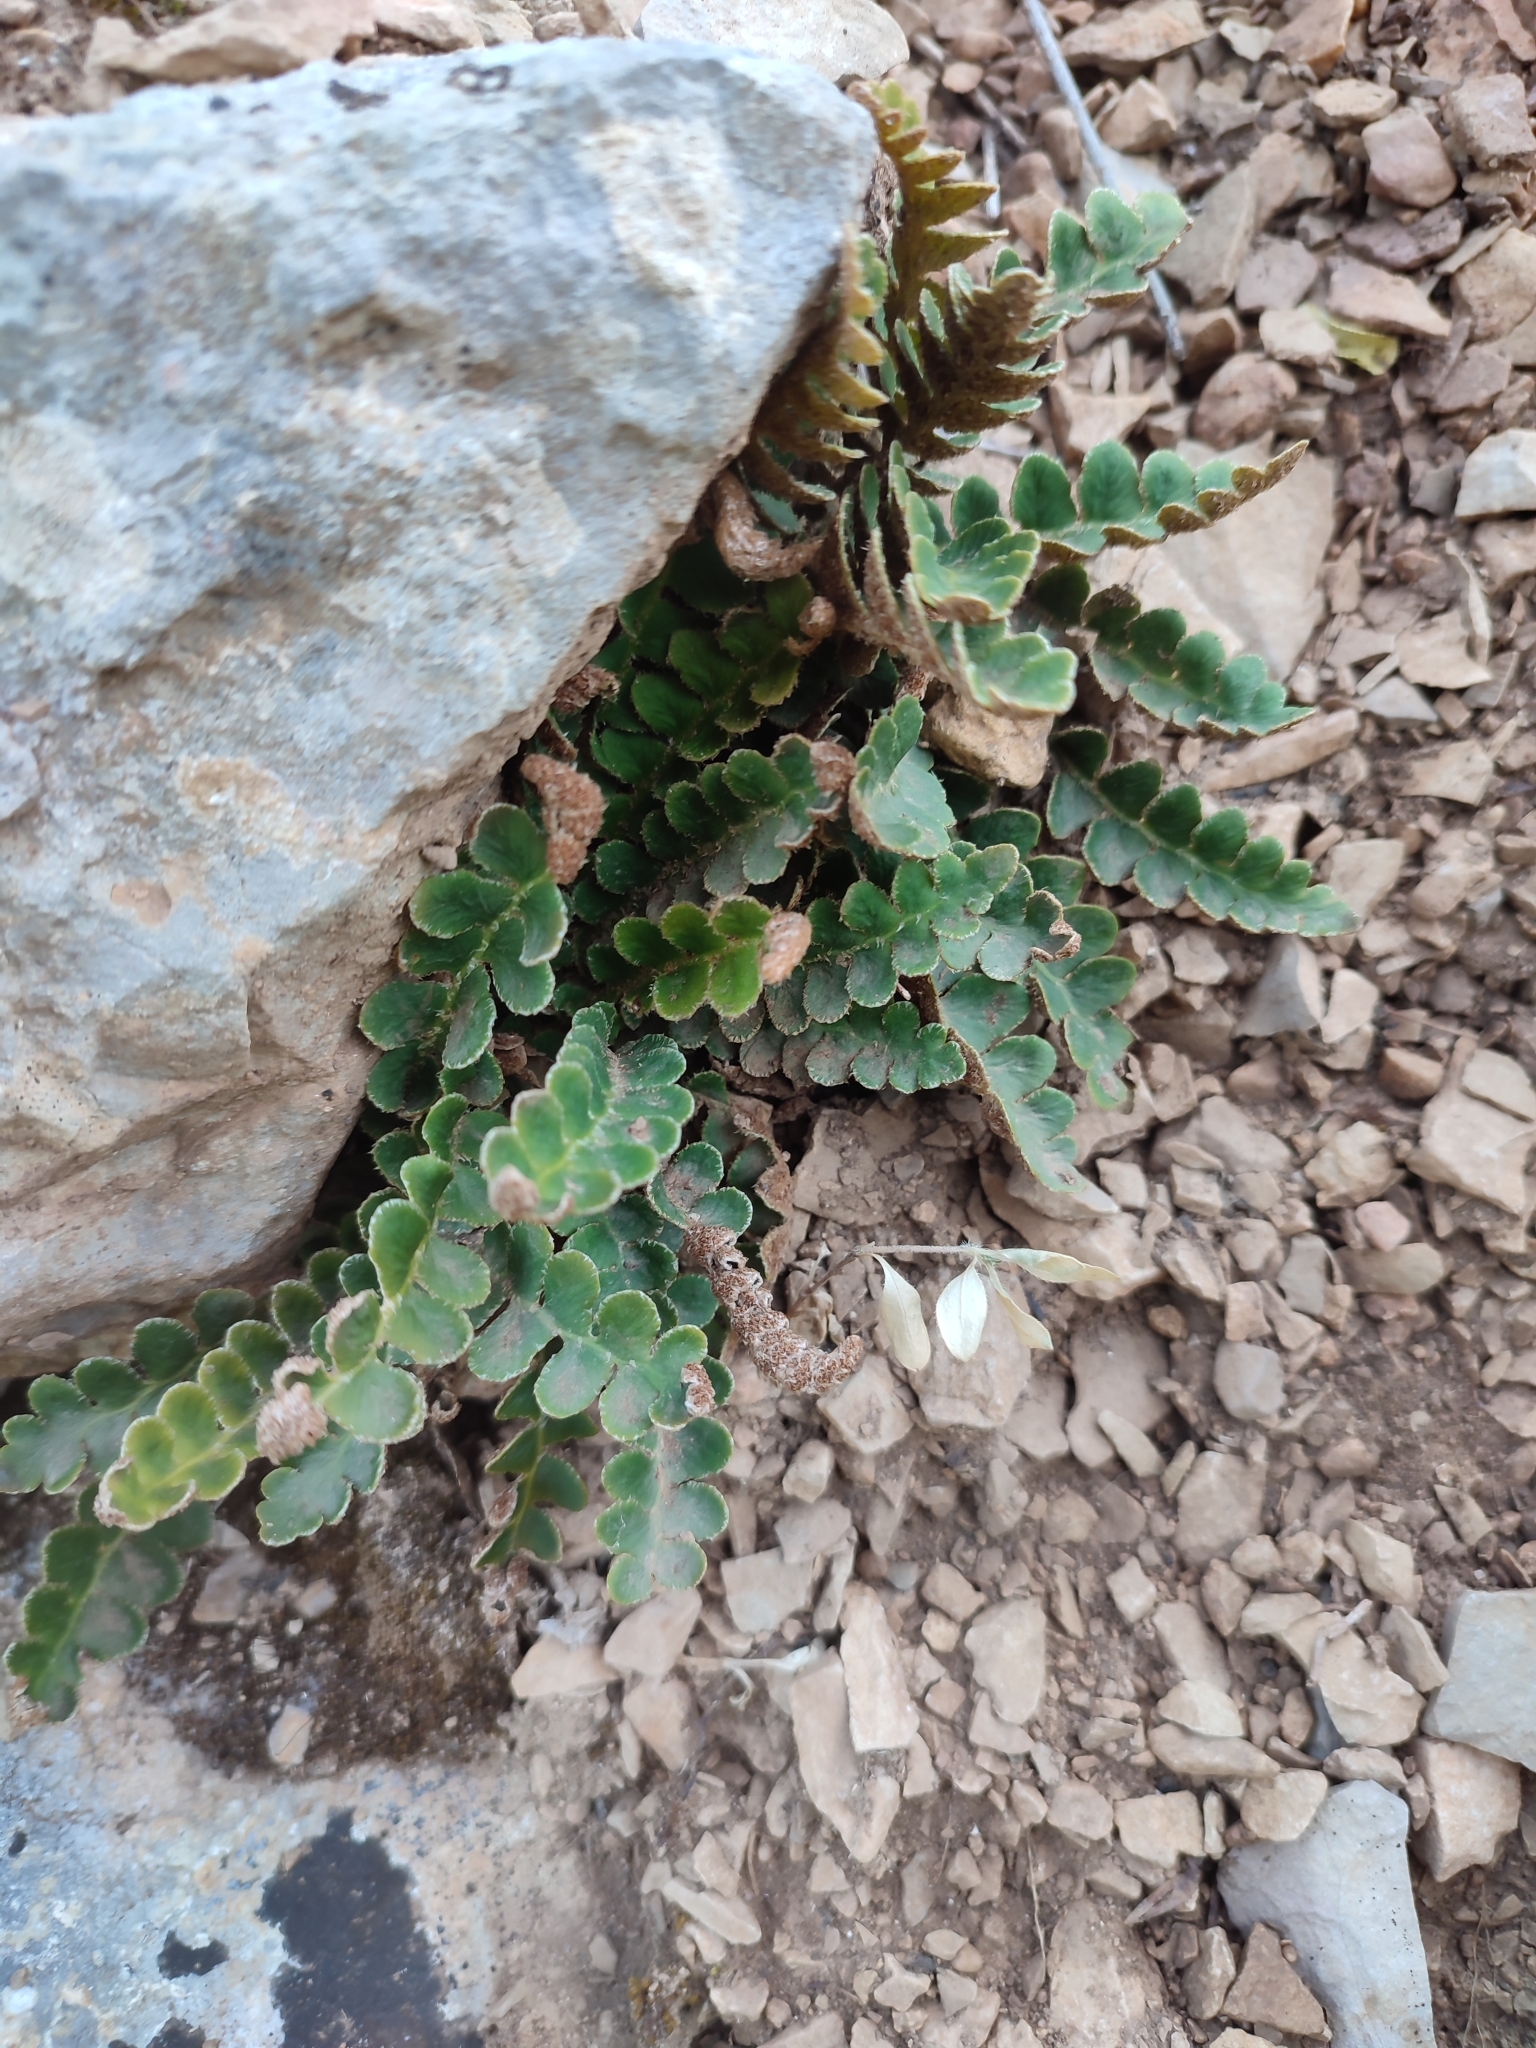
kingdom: Plantae
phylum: Tracheophyta
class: Polypodiopsida
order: Polypodiales
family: Aspleniaceae
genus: Asplenium
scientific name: Asplenium ceterach
